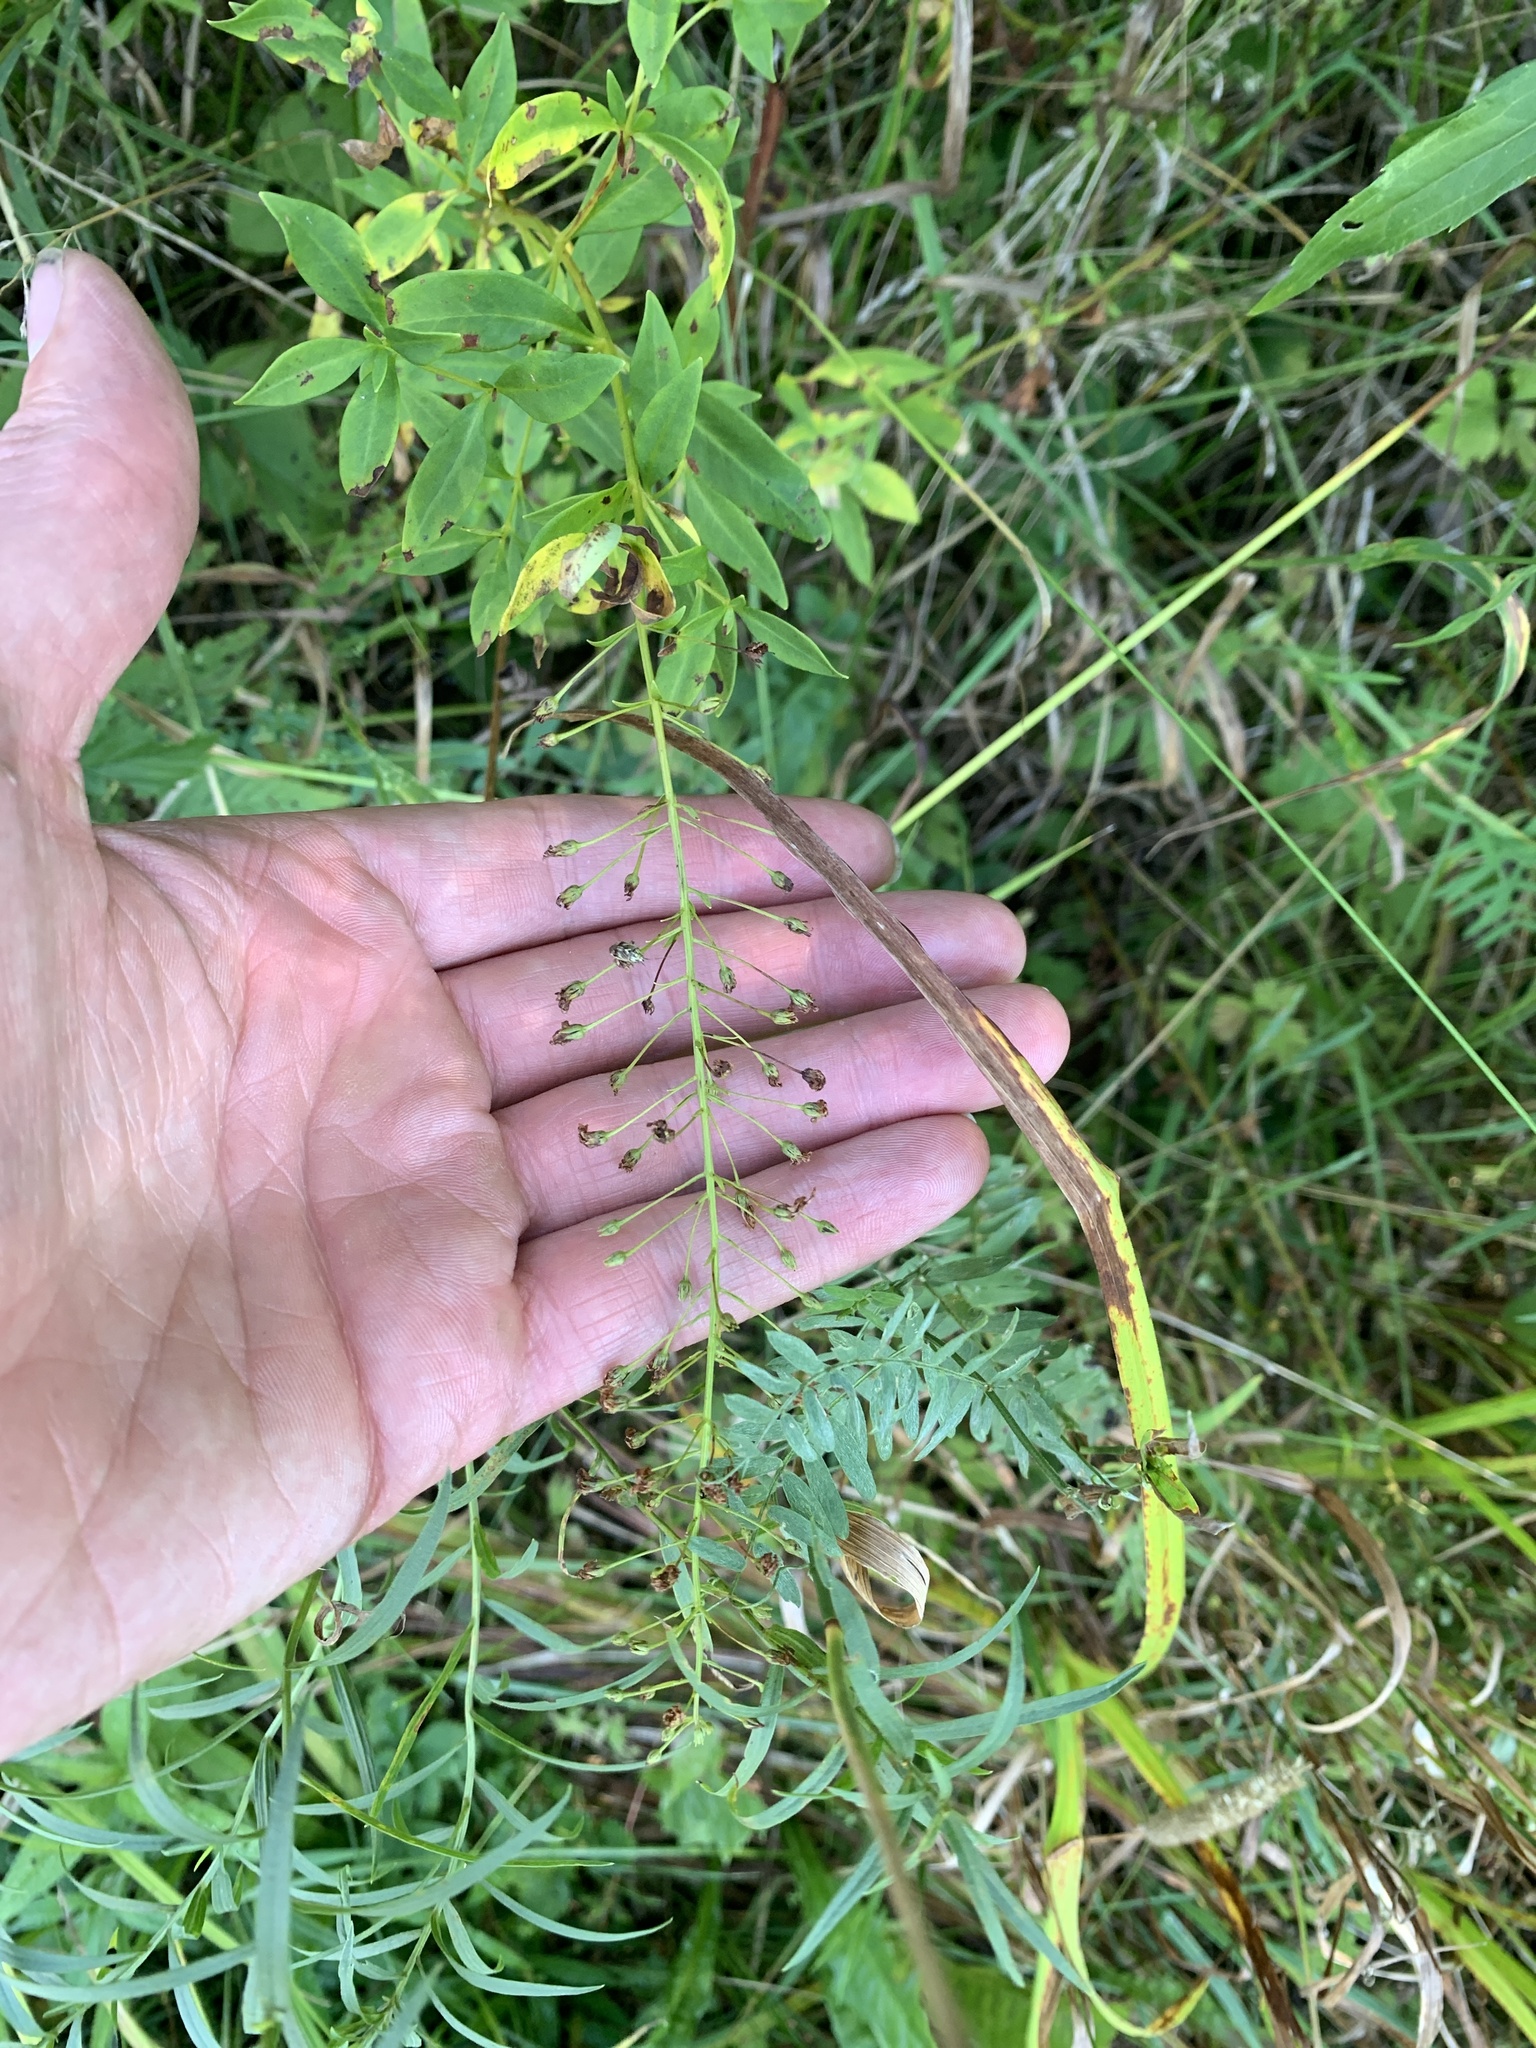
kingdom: Plantae
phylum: Tracheophyta
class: Magnoliopsida
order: Ericales
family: Primulaceae
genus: Lysimachia
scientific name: Lysimachia terrestris
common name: Lake loosestrife
